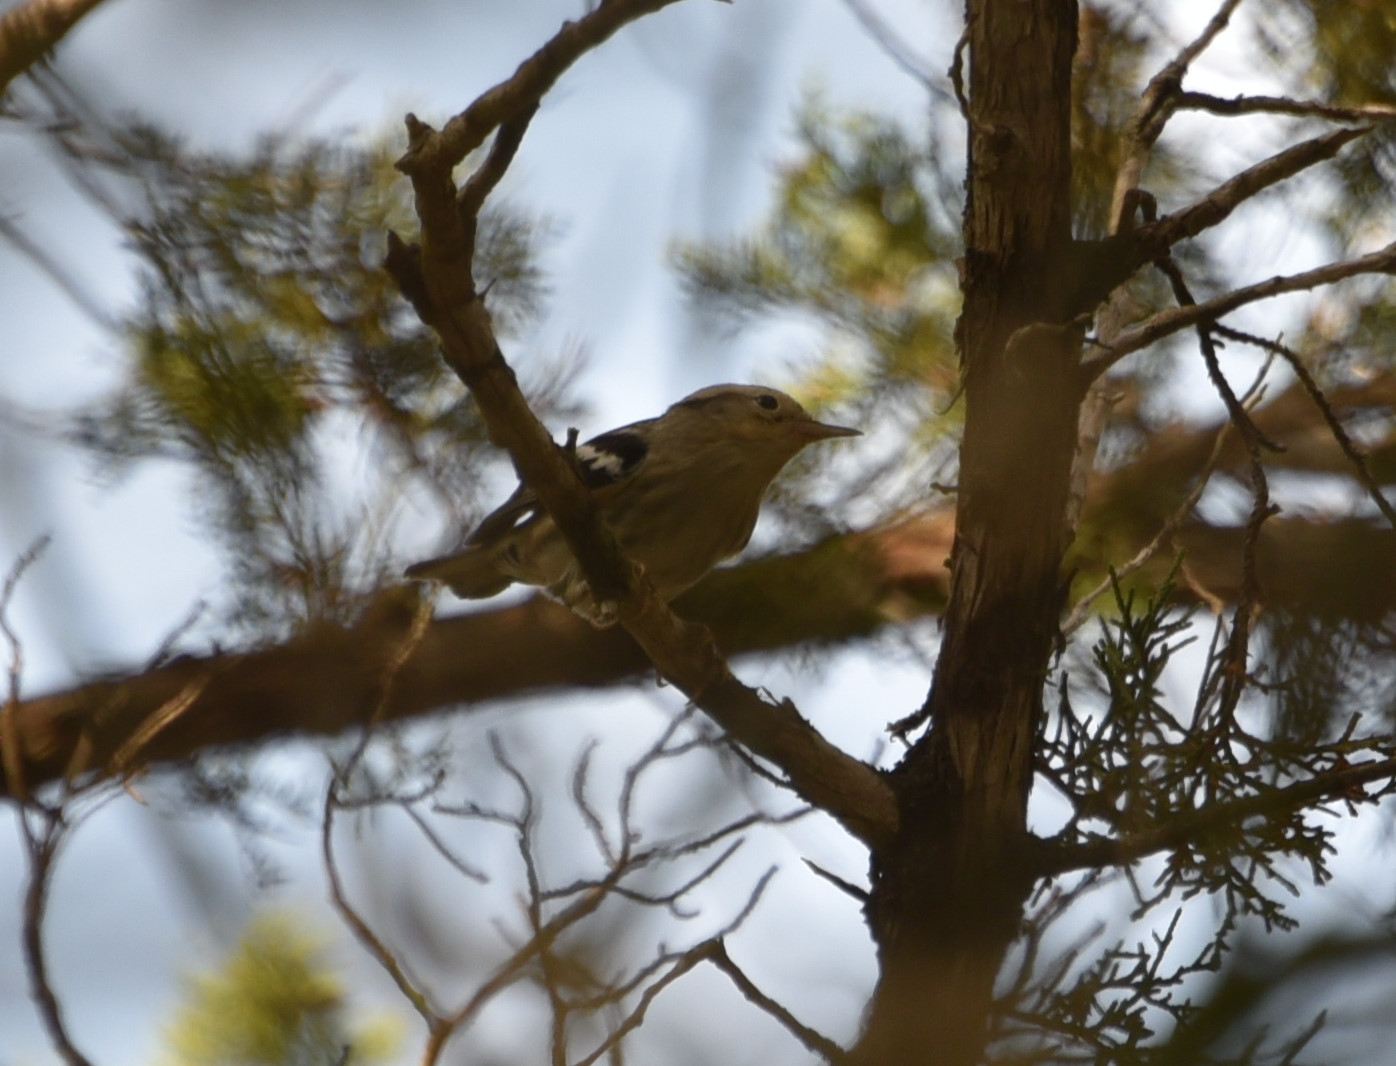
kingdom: Animalia
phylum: Chordata
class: Aves
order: Passeriformes
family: Parulidae
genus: Mniotilta
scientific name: Mniotilta varia
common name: Black-and-white warbler
